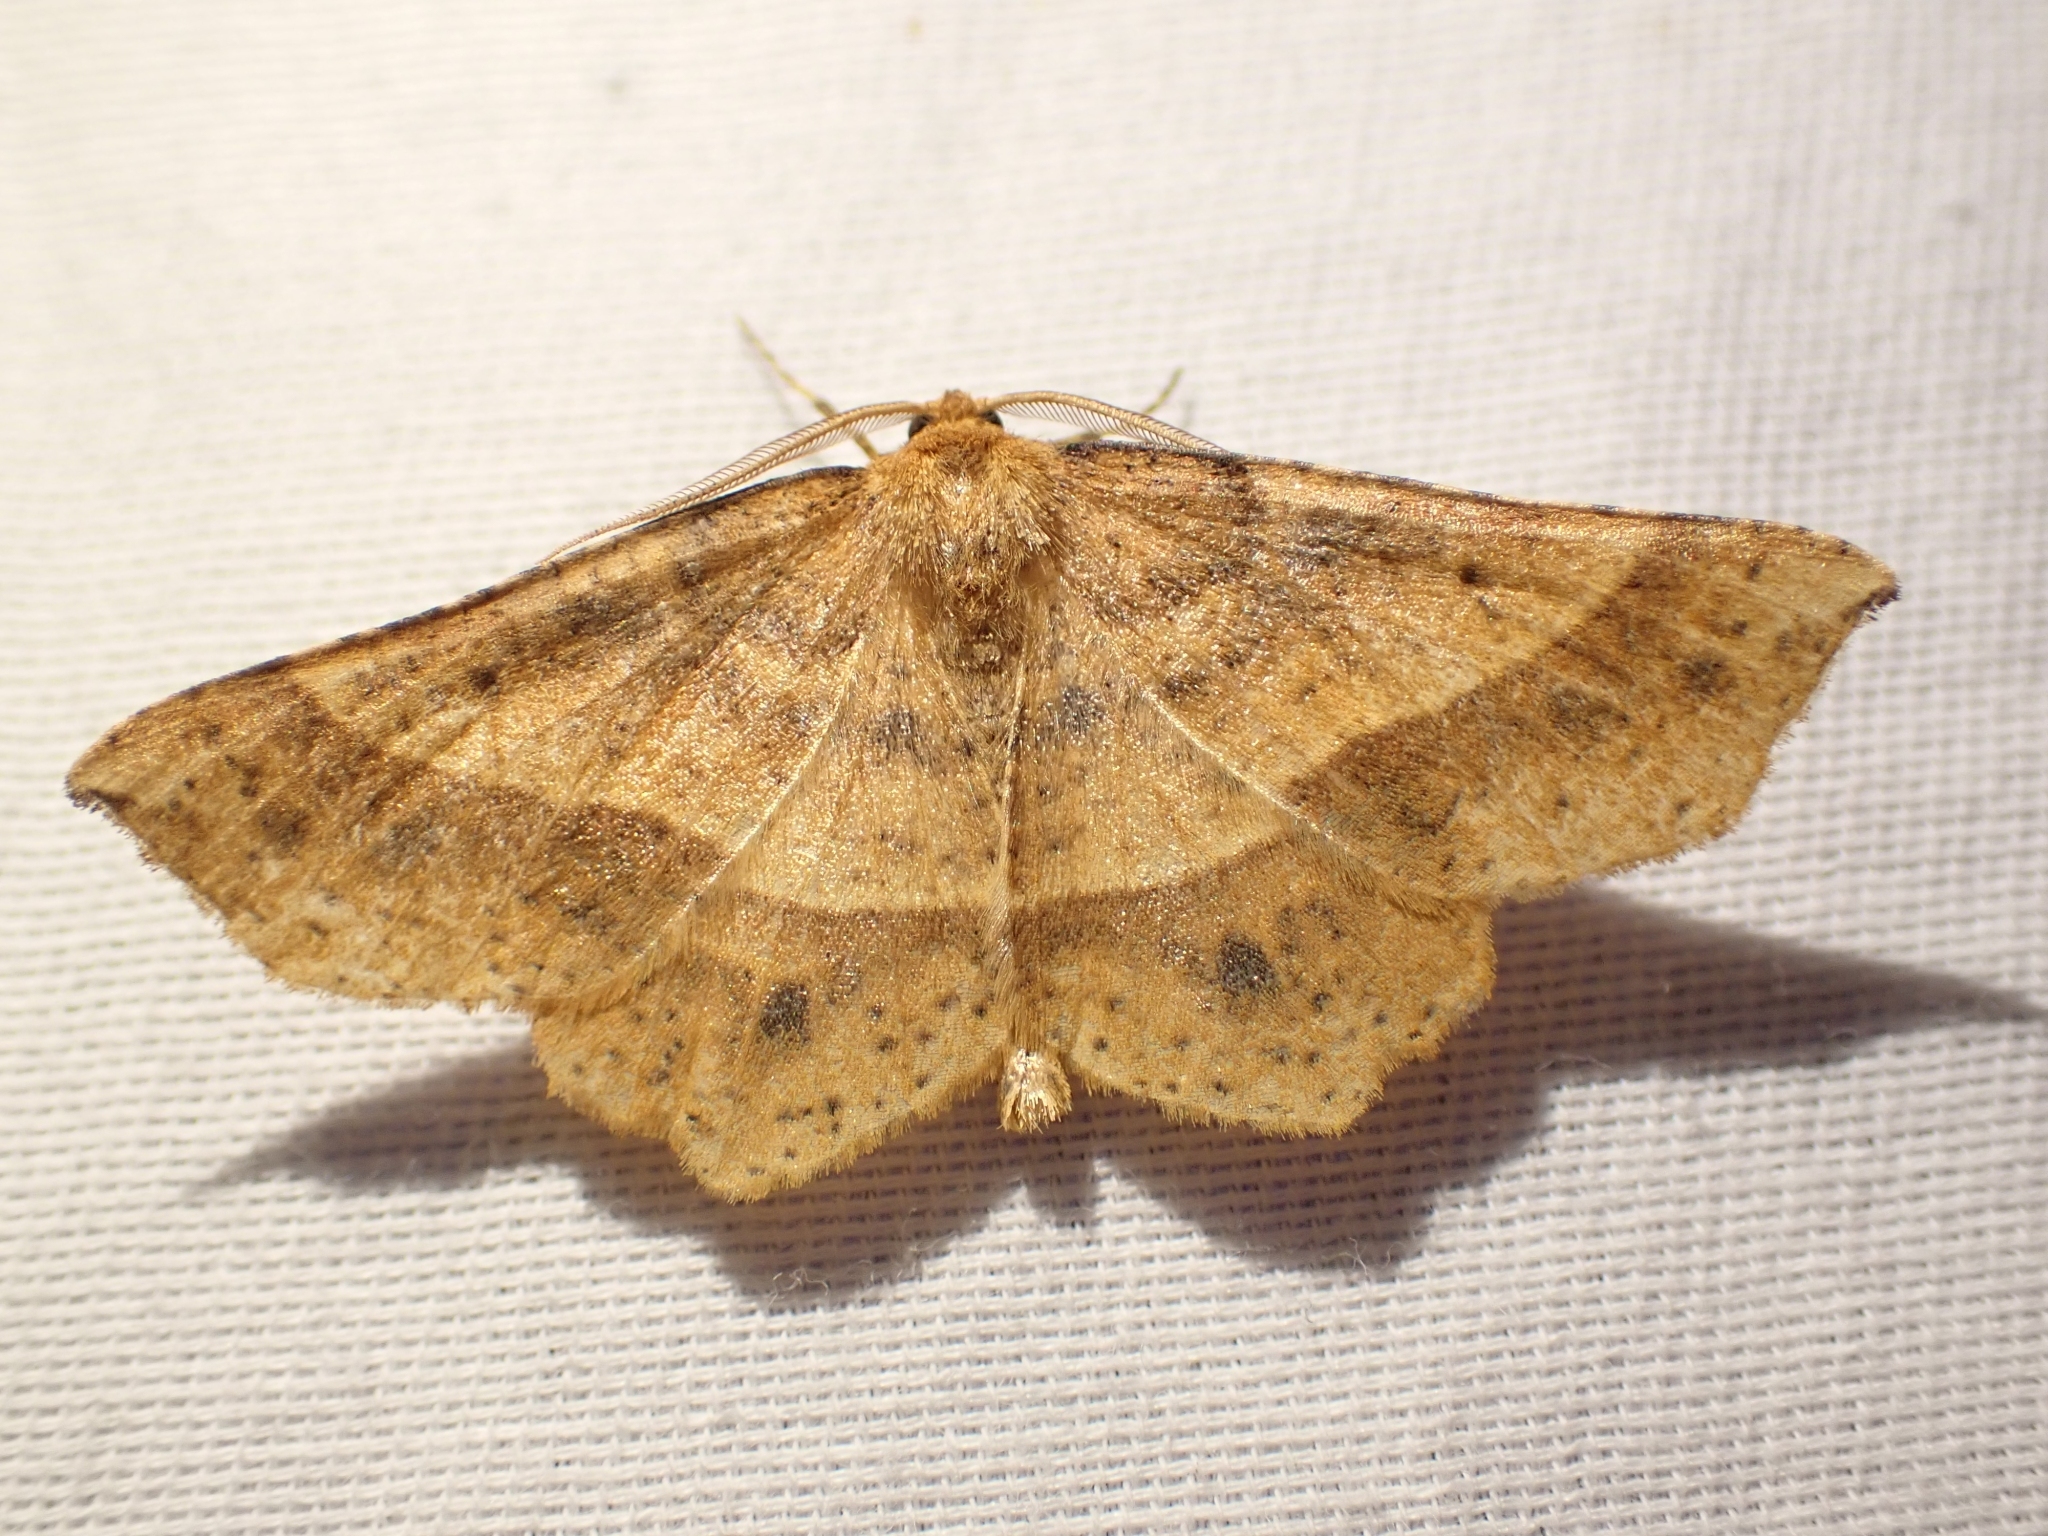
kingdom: Animalia
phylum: Arthropoda
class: Insecta
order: Lepidoptera
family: Geometridae
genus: Euchlaena
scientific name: Euchlaena tigrinaria
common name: Mottled euchlaena moth
